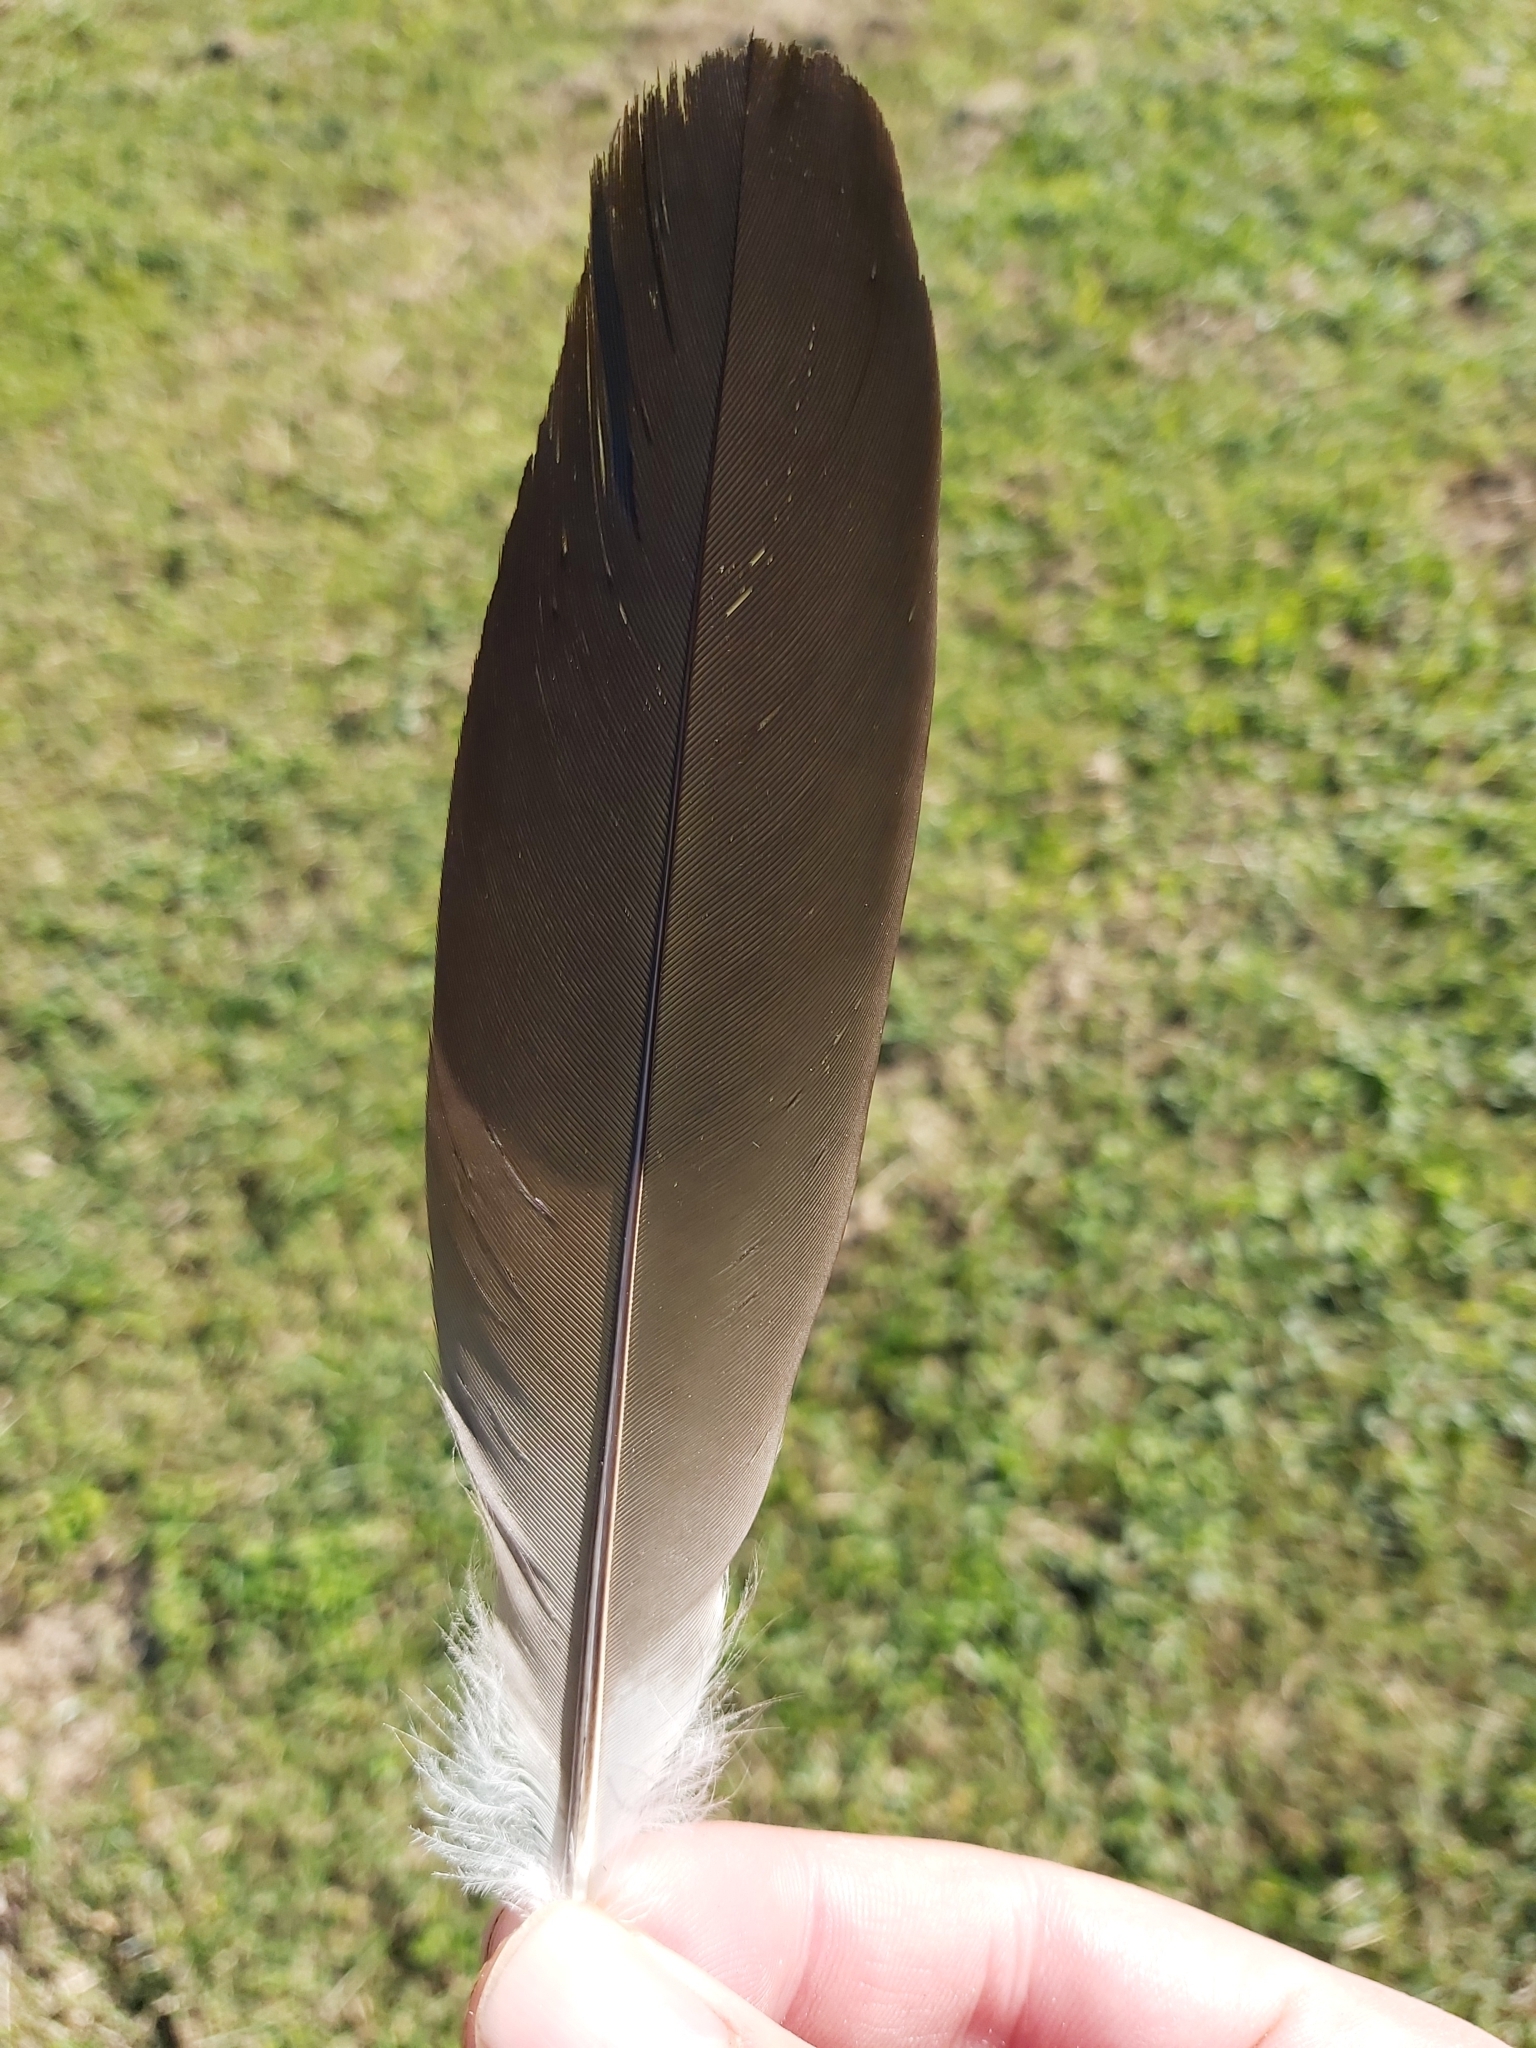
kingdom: Animalia
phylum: Chordata
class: Aves
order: Pelecaniformes
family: Threskiornithidae
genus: Threskiornis
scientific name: Threskiornis spinicollis
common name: Straw-necked ibis
